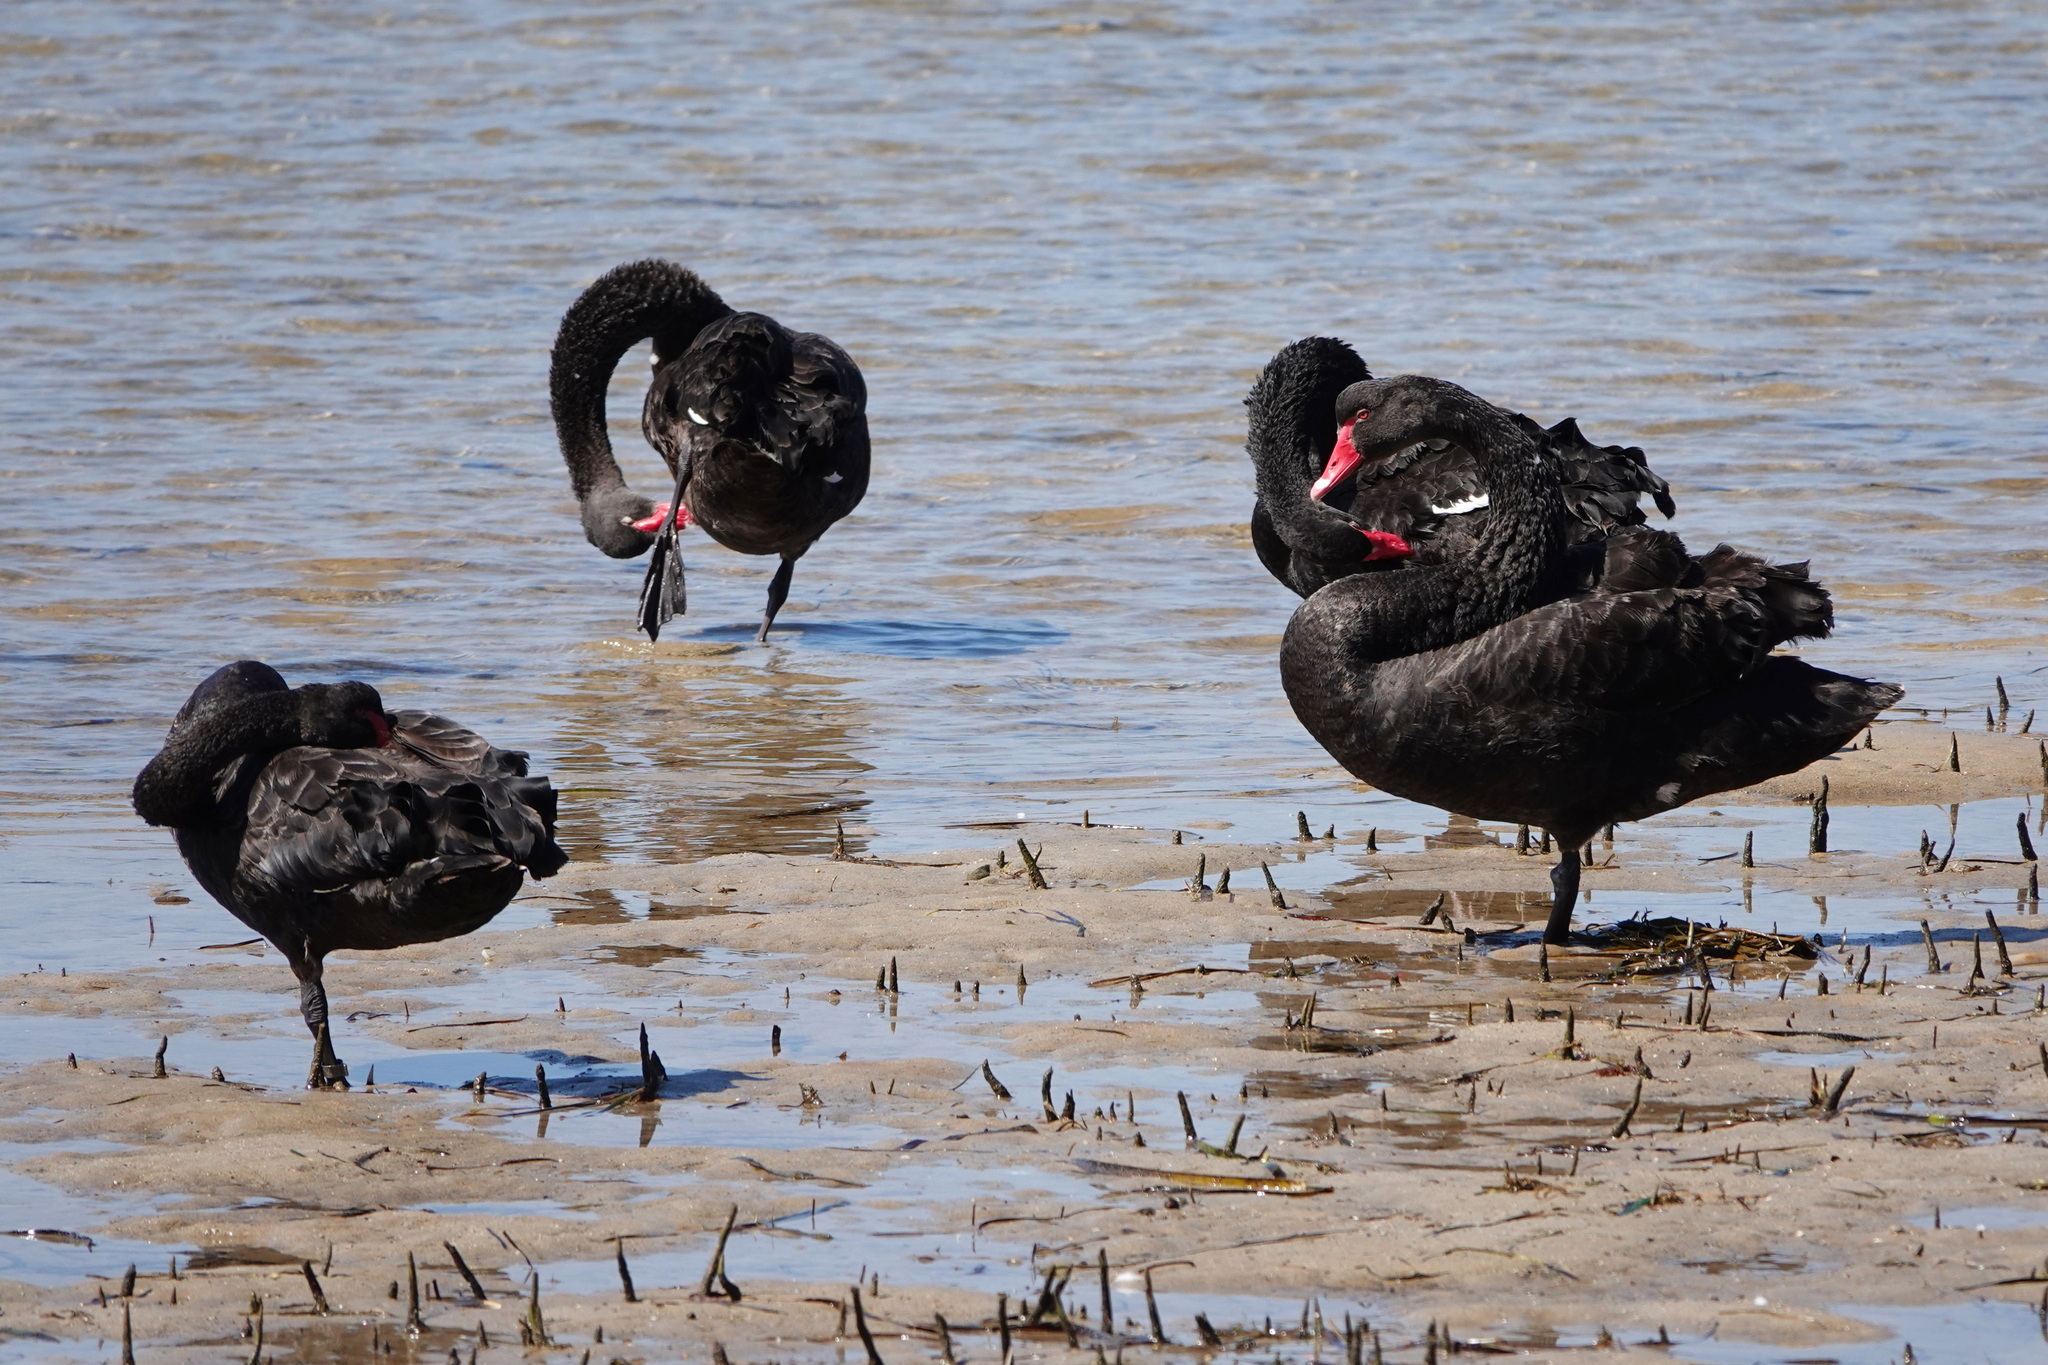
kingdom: Animalia
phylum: Chordata
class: Aves
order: Anseriformes
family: Anatidae
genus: Cygnus
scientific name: Cygnus atratus
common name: Black swan
